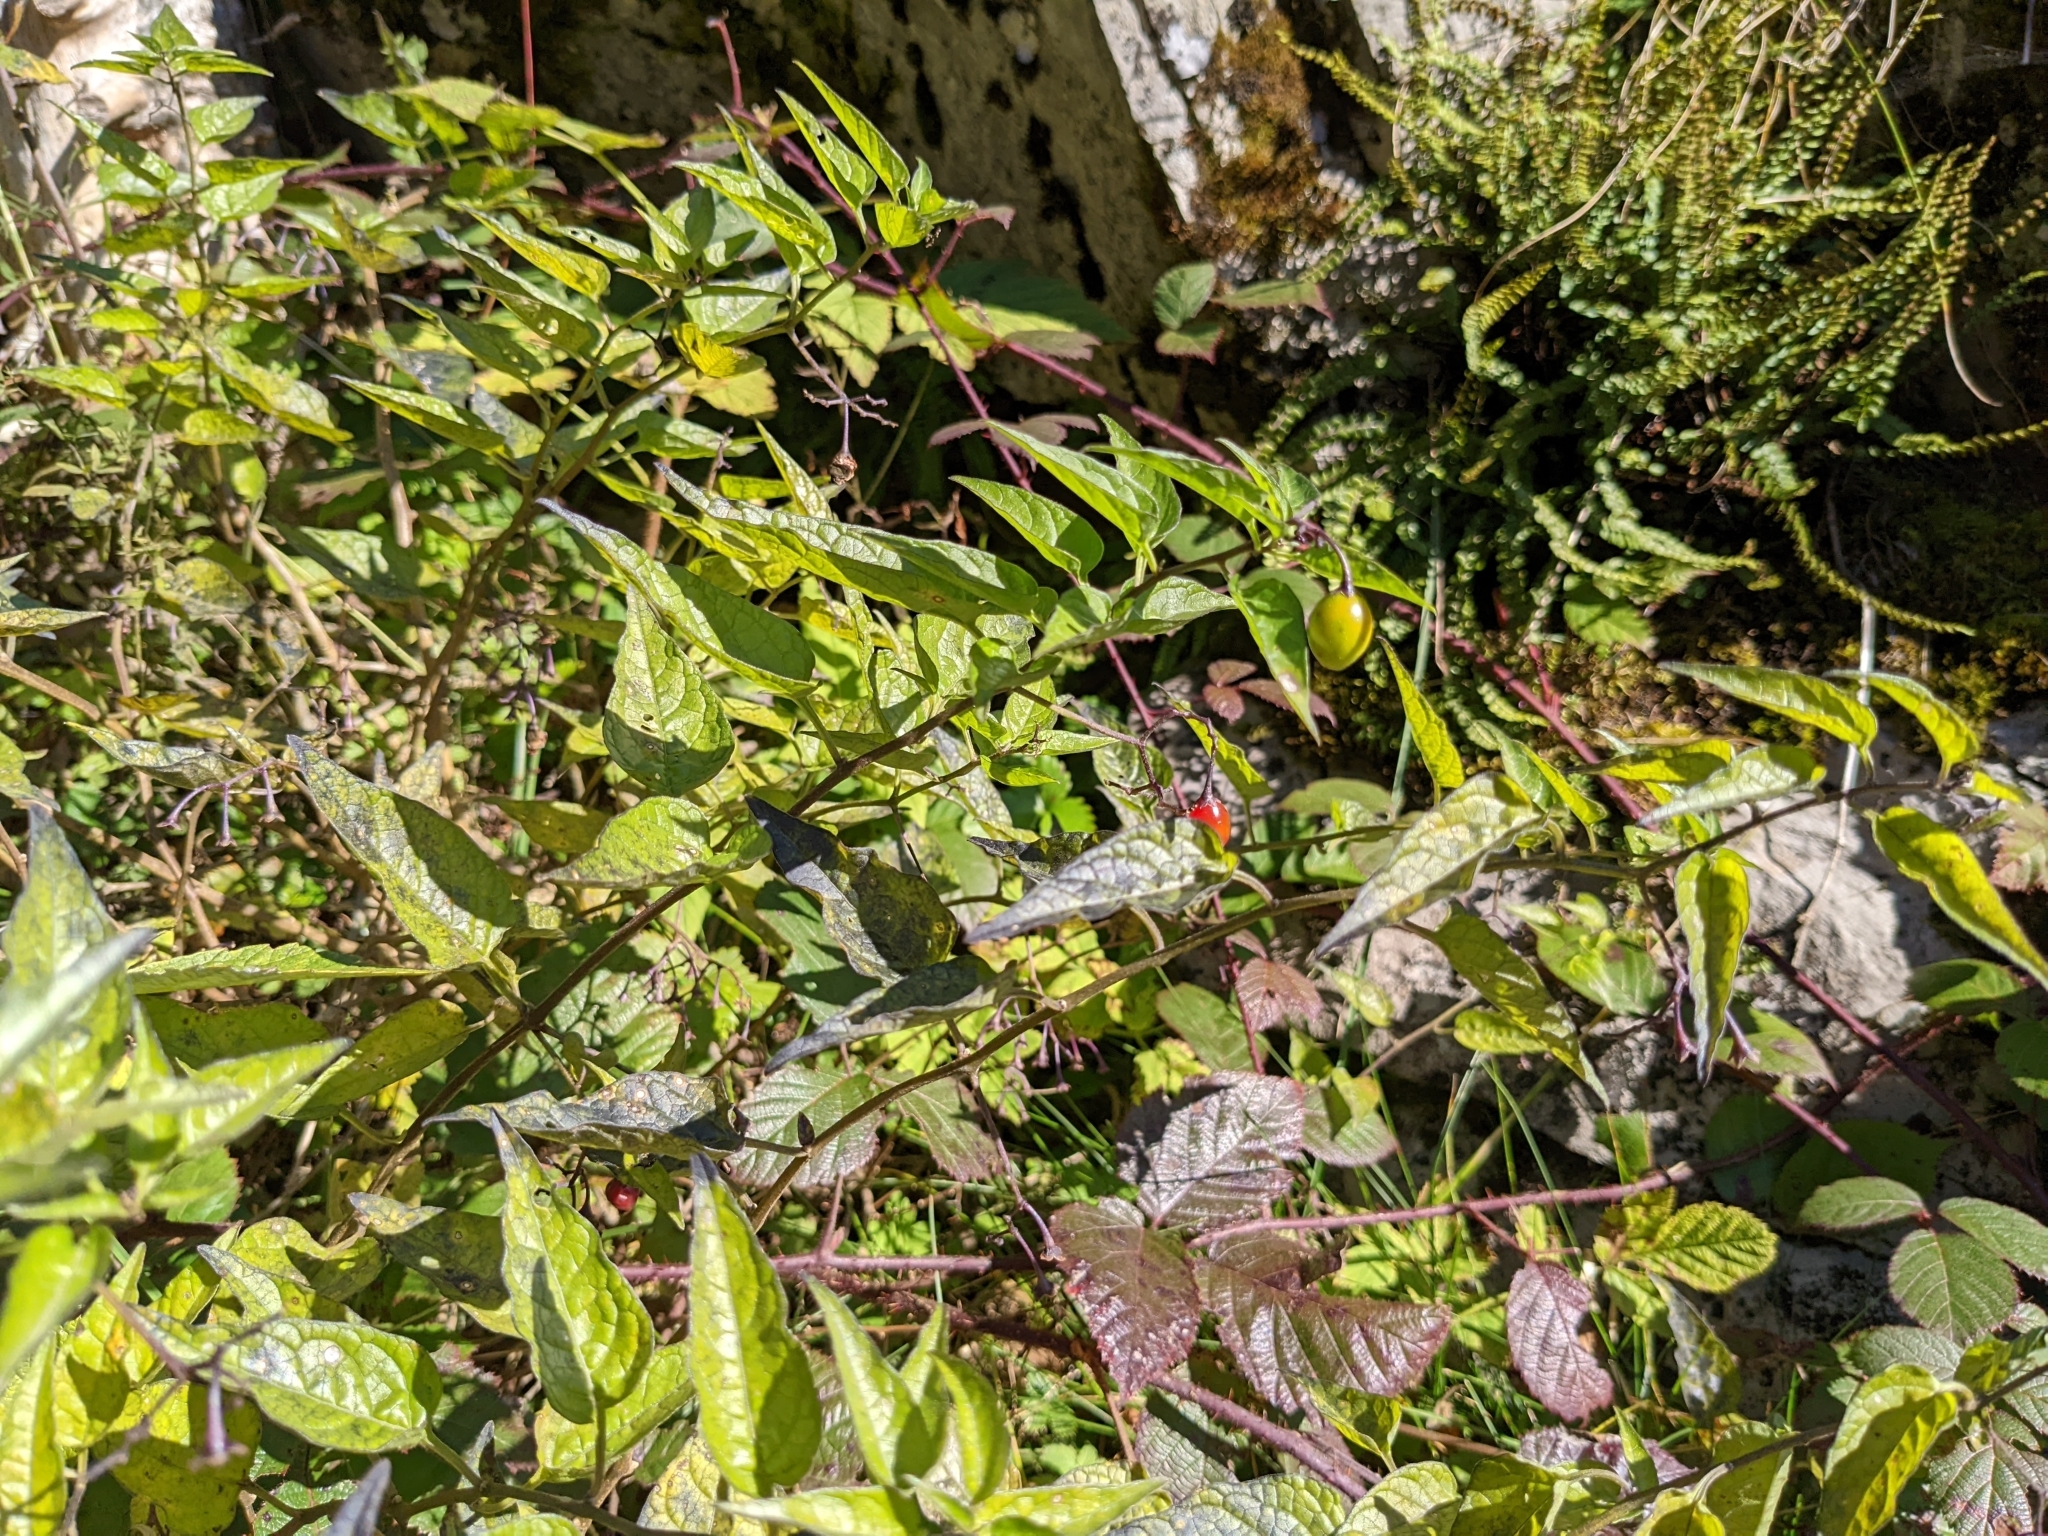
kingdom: Plantae
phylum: Tracheophyta
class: Magnoliopsida
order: Solanales
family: Solanaceae
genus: Solanum
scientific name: Solanum dulcamara
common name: Climbing nightshade
